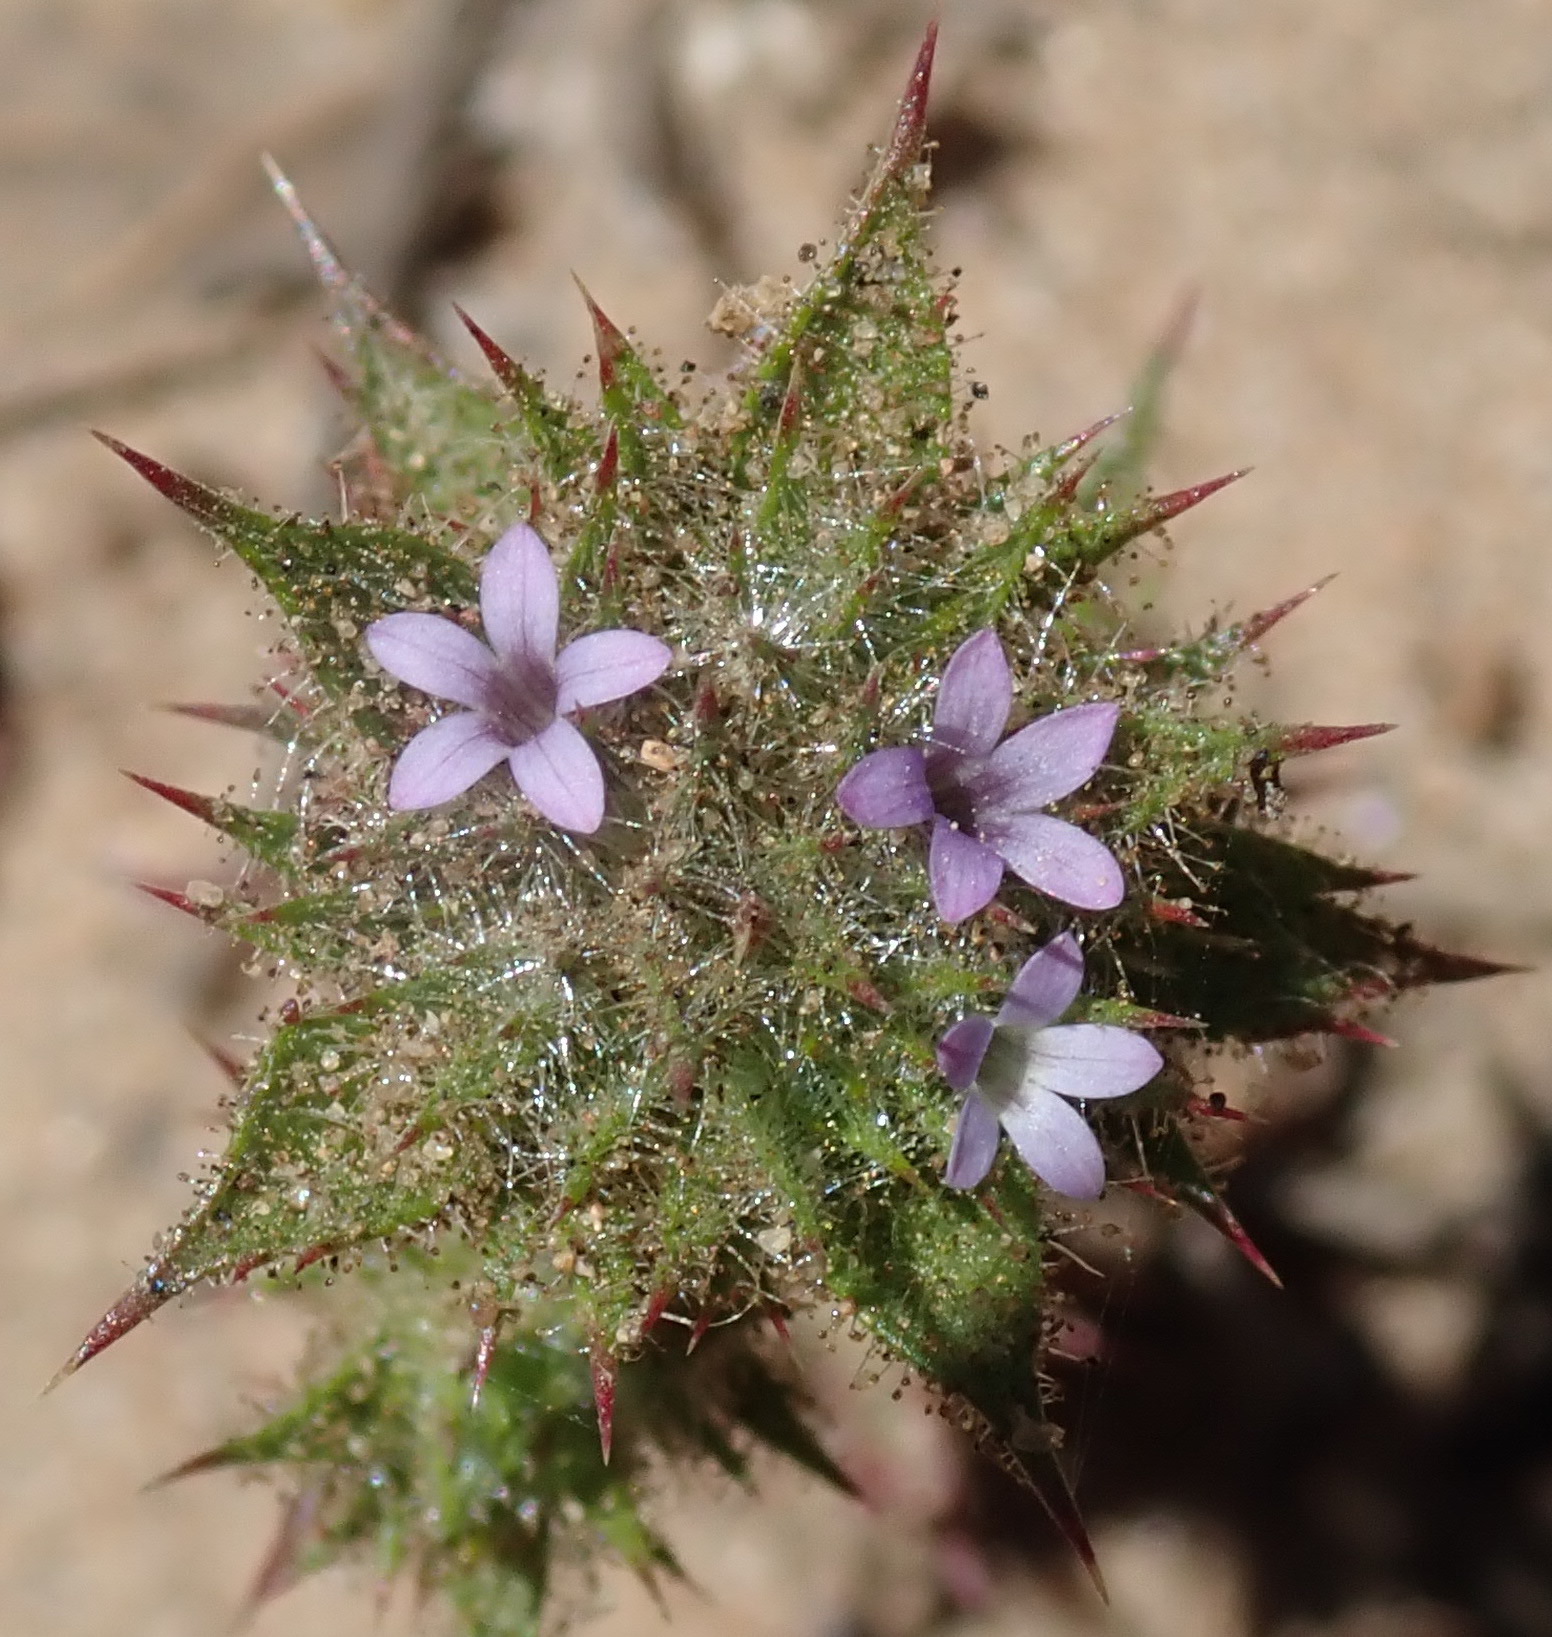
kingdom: Plantae
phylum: Tracheophyta
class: Magnoliopsida
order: Ericales
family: Polemoniaceae
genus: Navarretia
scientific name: Navarretia mellita
